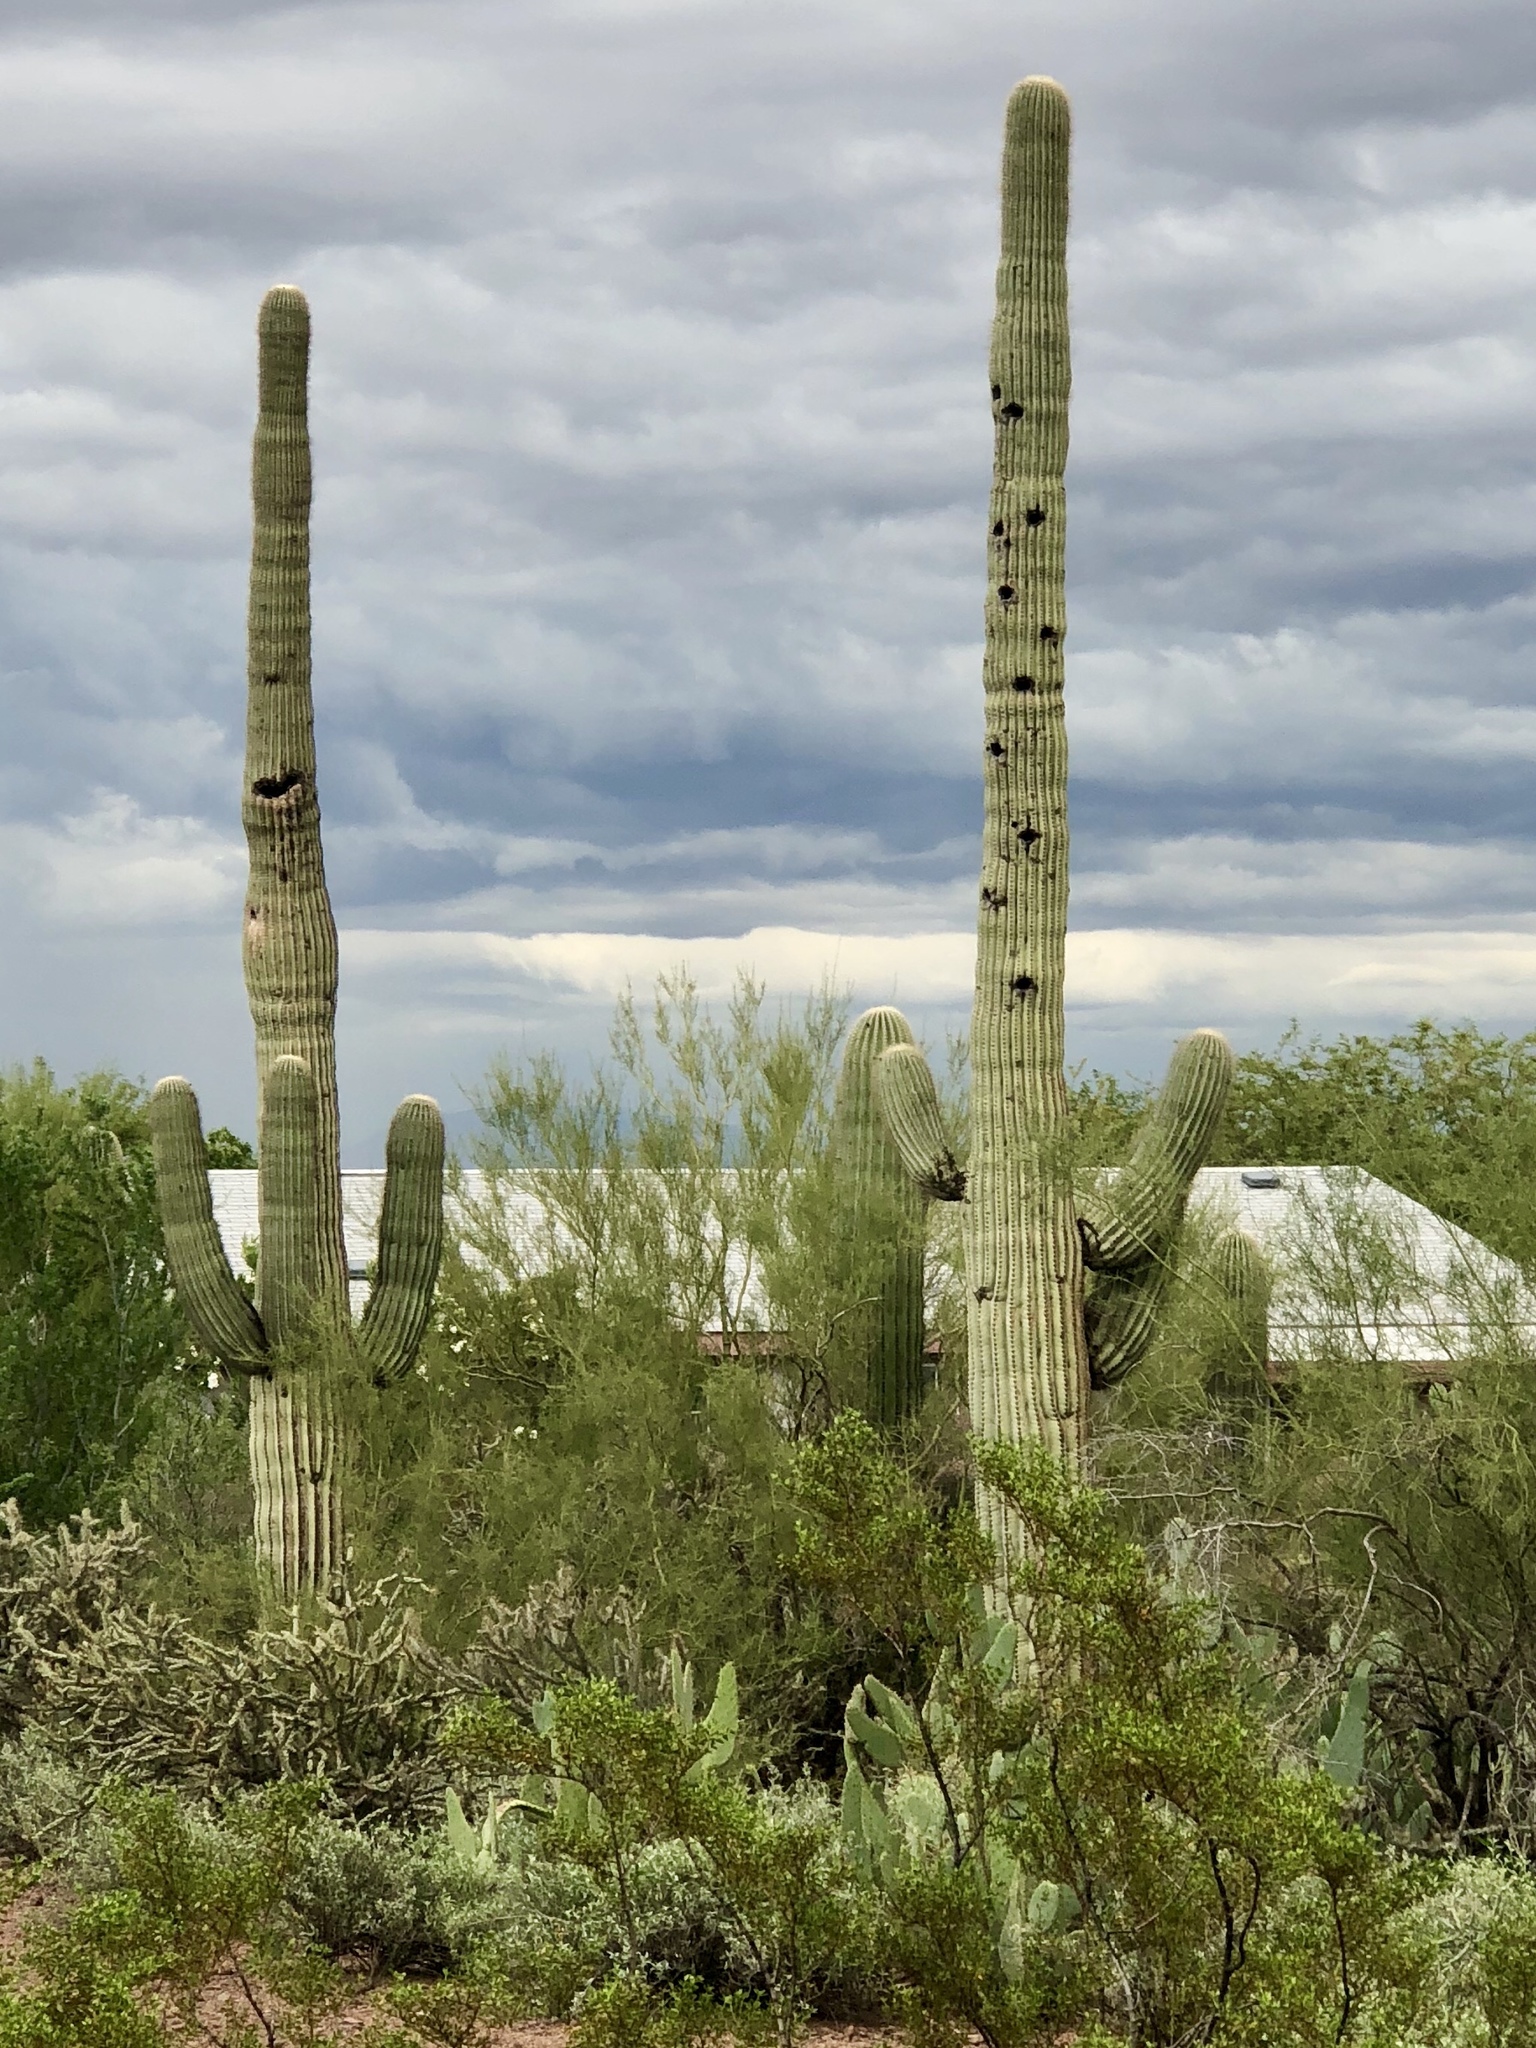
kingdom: Plantae
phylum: Tracheophyta
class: Magnoliopsida
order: Caryophyllales
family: Cactaceae
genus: Carnegiea
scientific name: Carnegiea gigantea
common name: Saguaro
